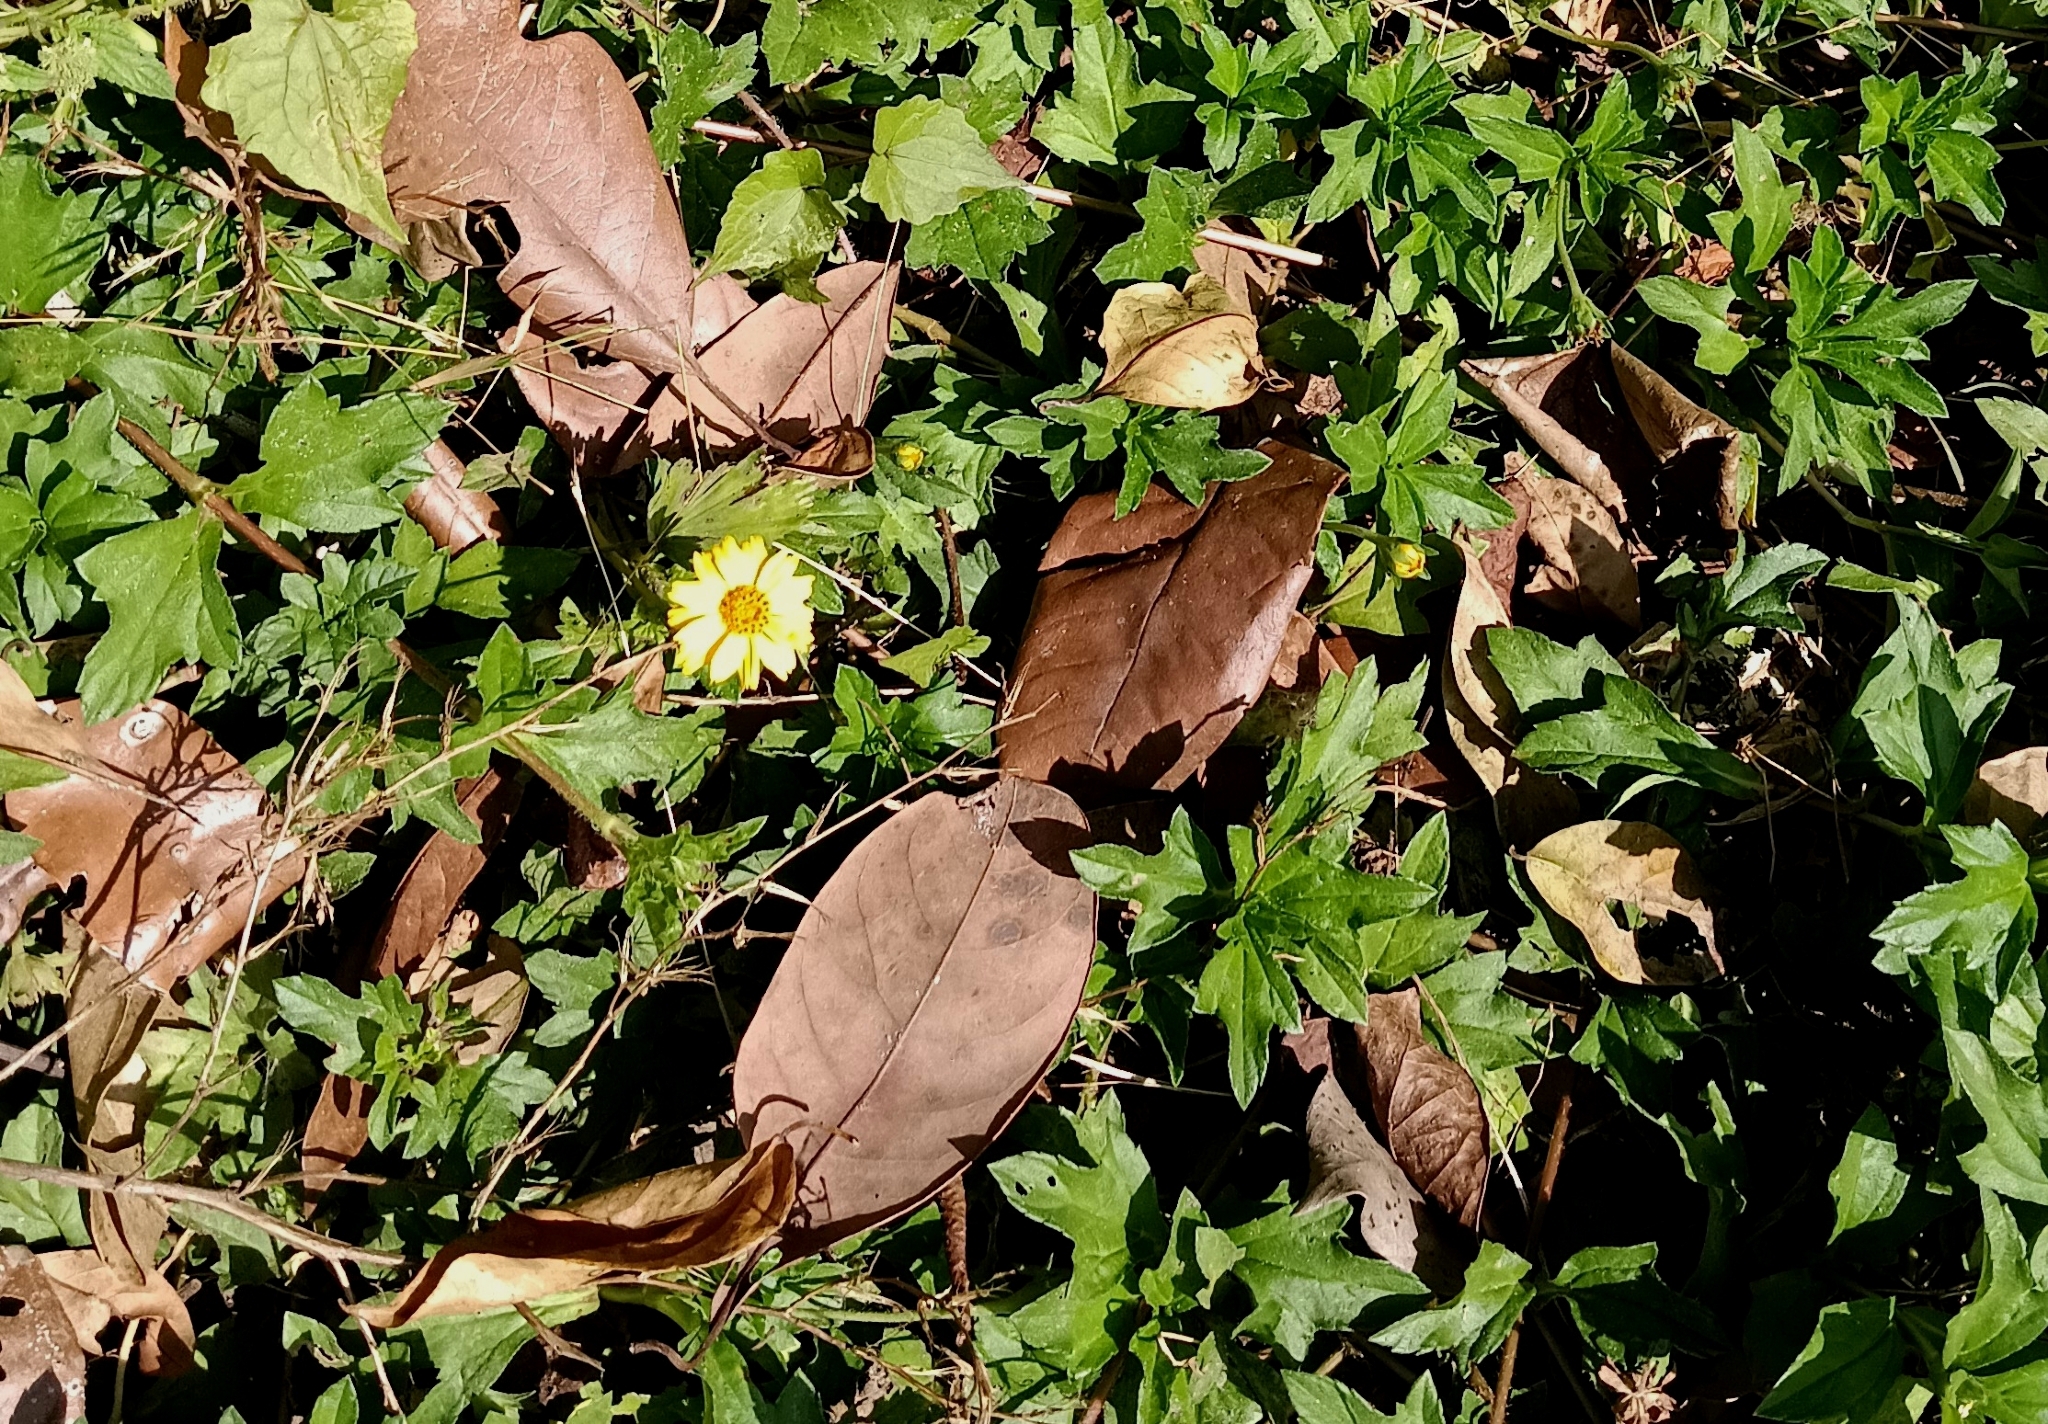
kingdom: Plantae
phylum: Tracheophyta
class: Magnoliopsida
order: Asterales
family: Asteraceae
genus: Sphagneticola
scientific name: Sphagneticola trilobata
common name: Bay biscayne creeping-oxeye
